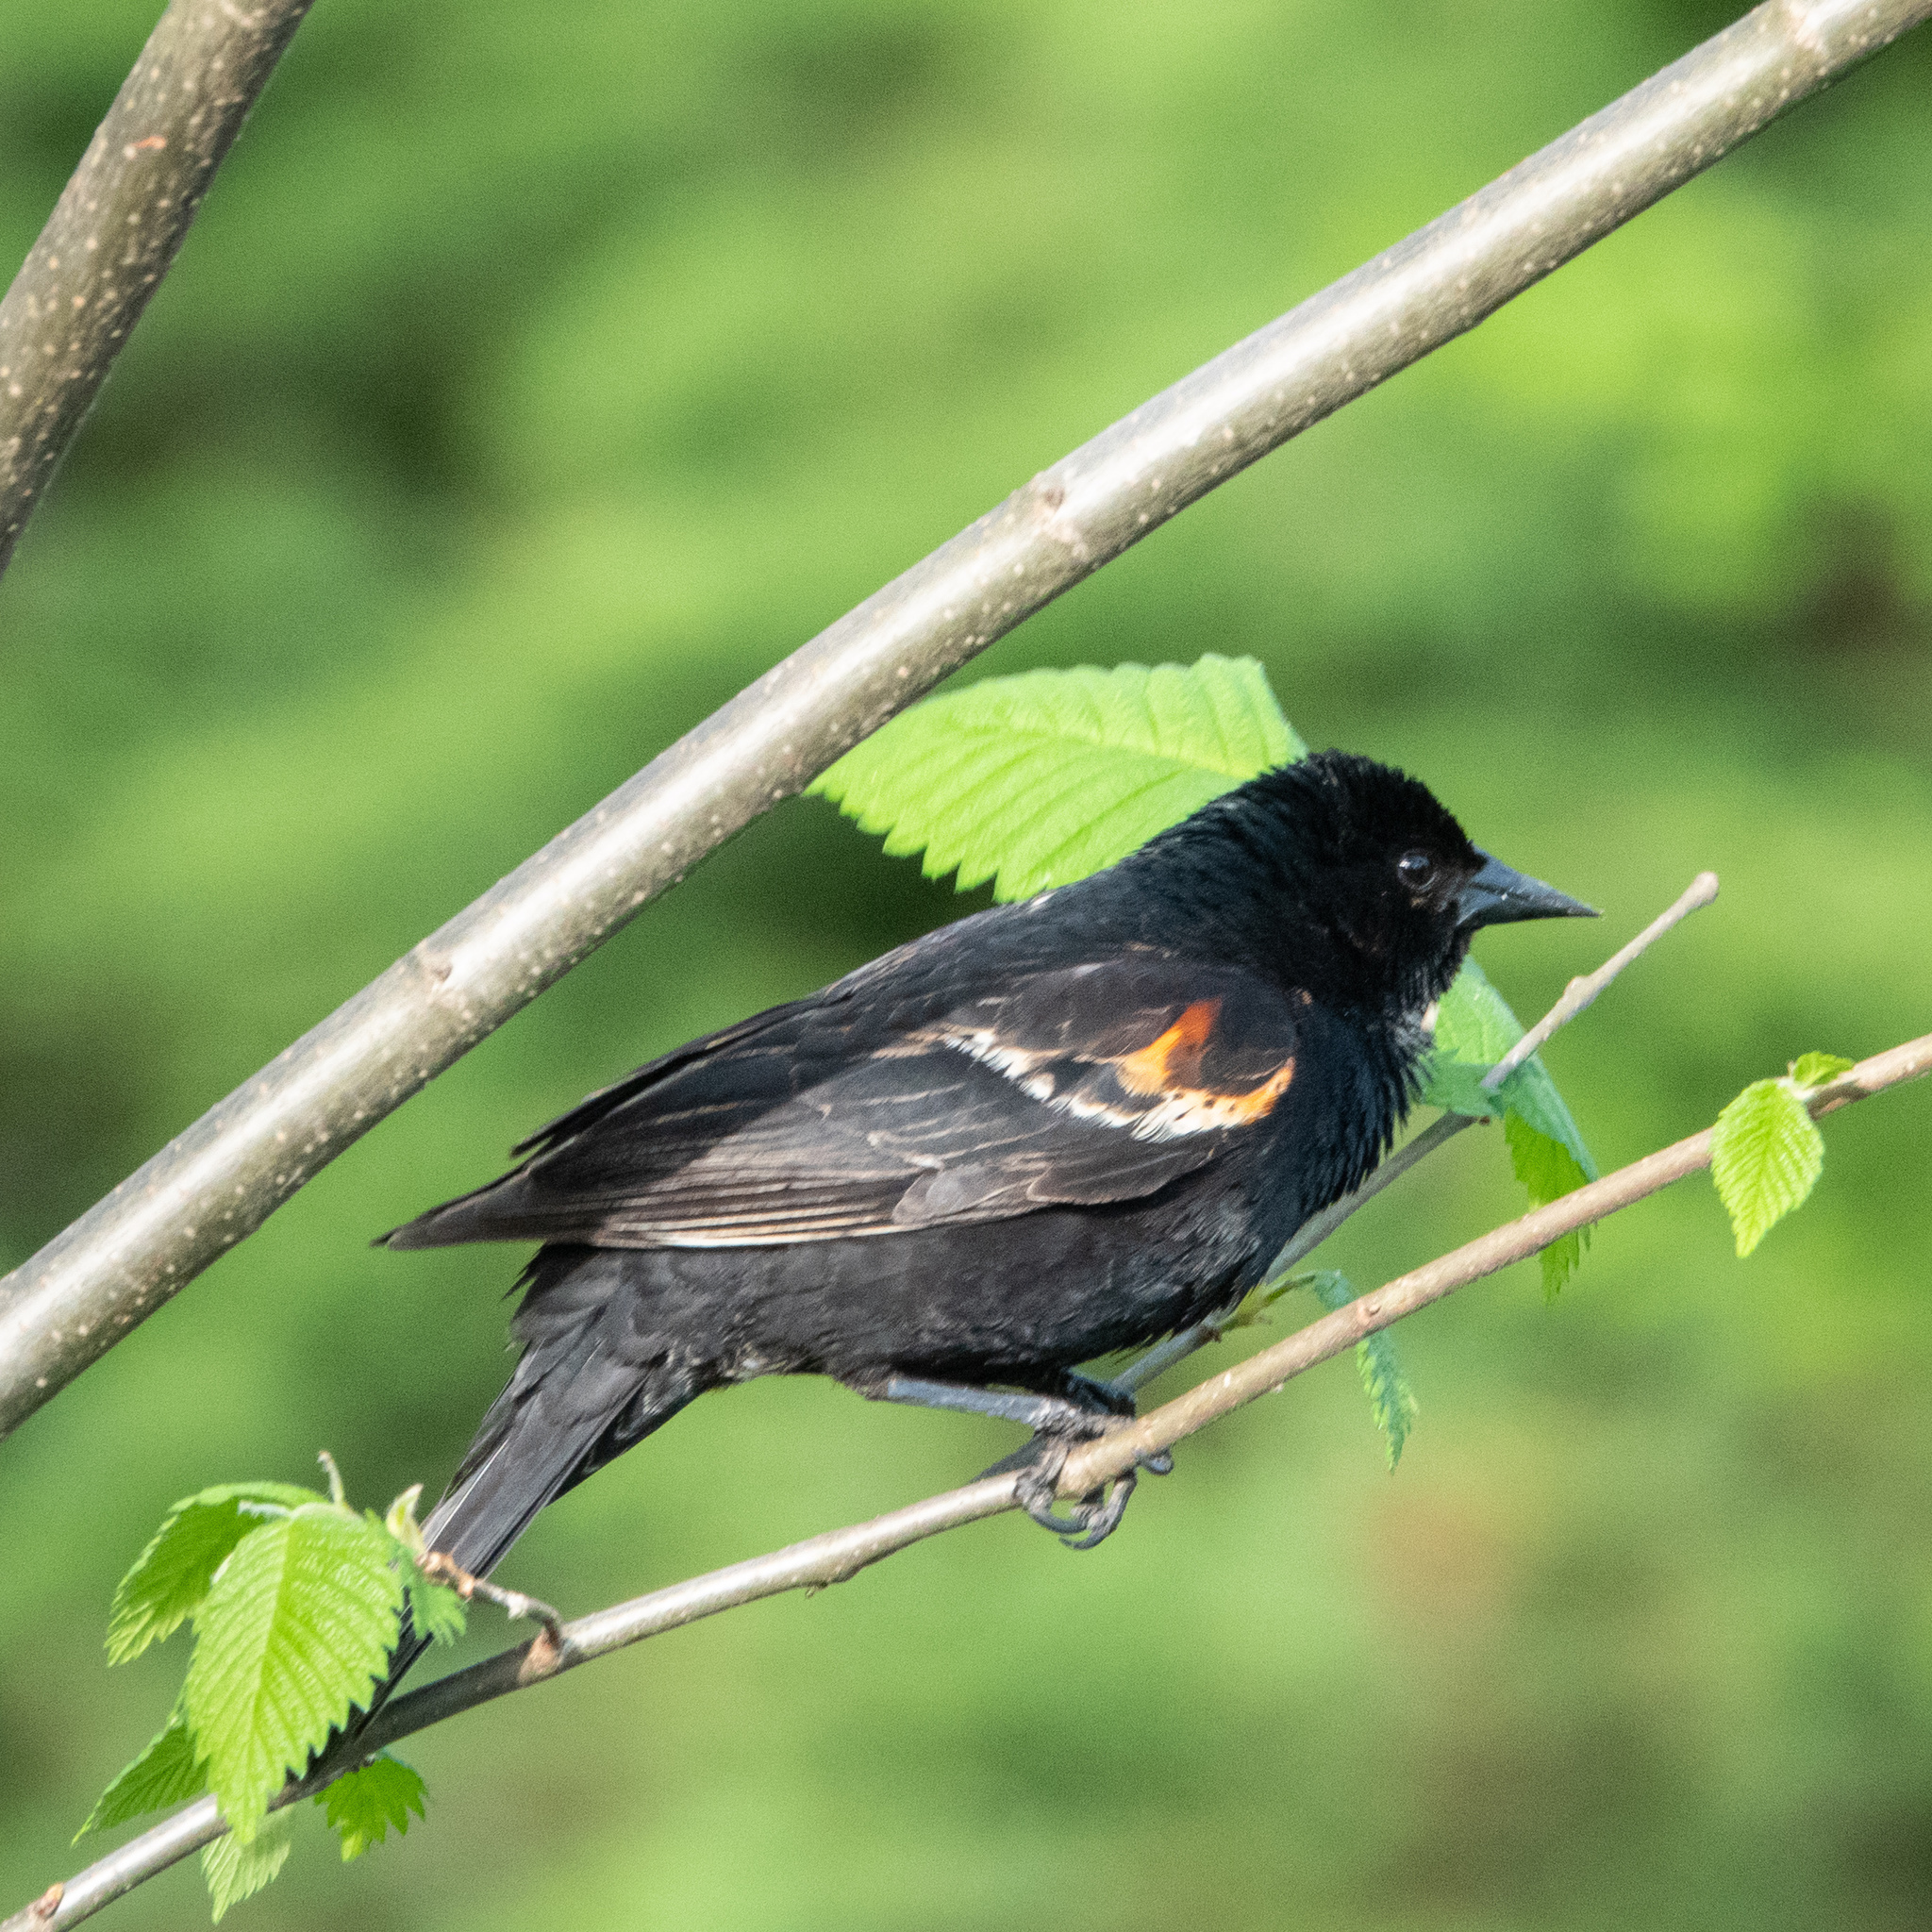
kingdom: Animalia
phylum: Chordata
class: Aves
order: Passeriformes
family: Icteridae
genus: Agelaius
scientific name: Agelaius phoeniceus
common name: Red-winged blackbird
